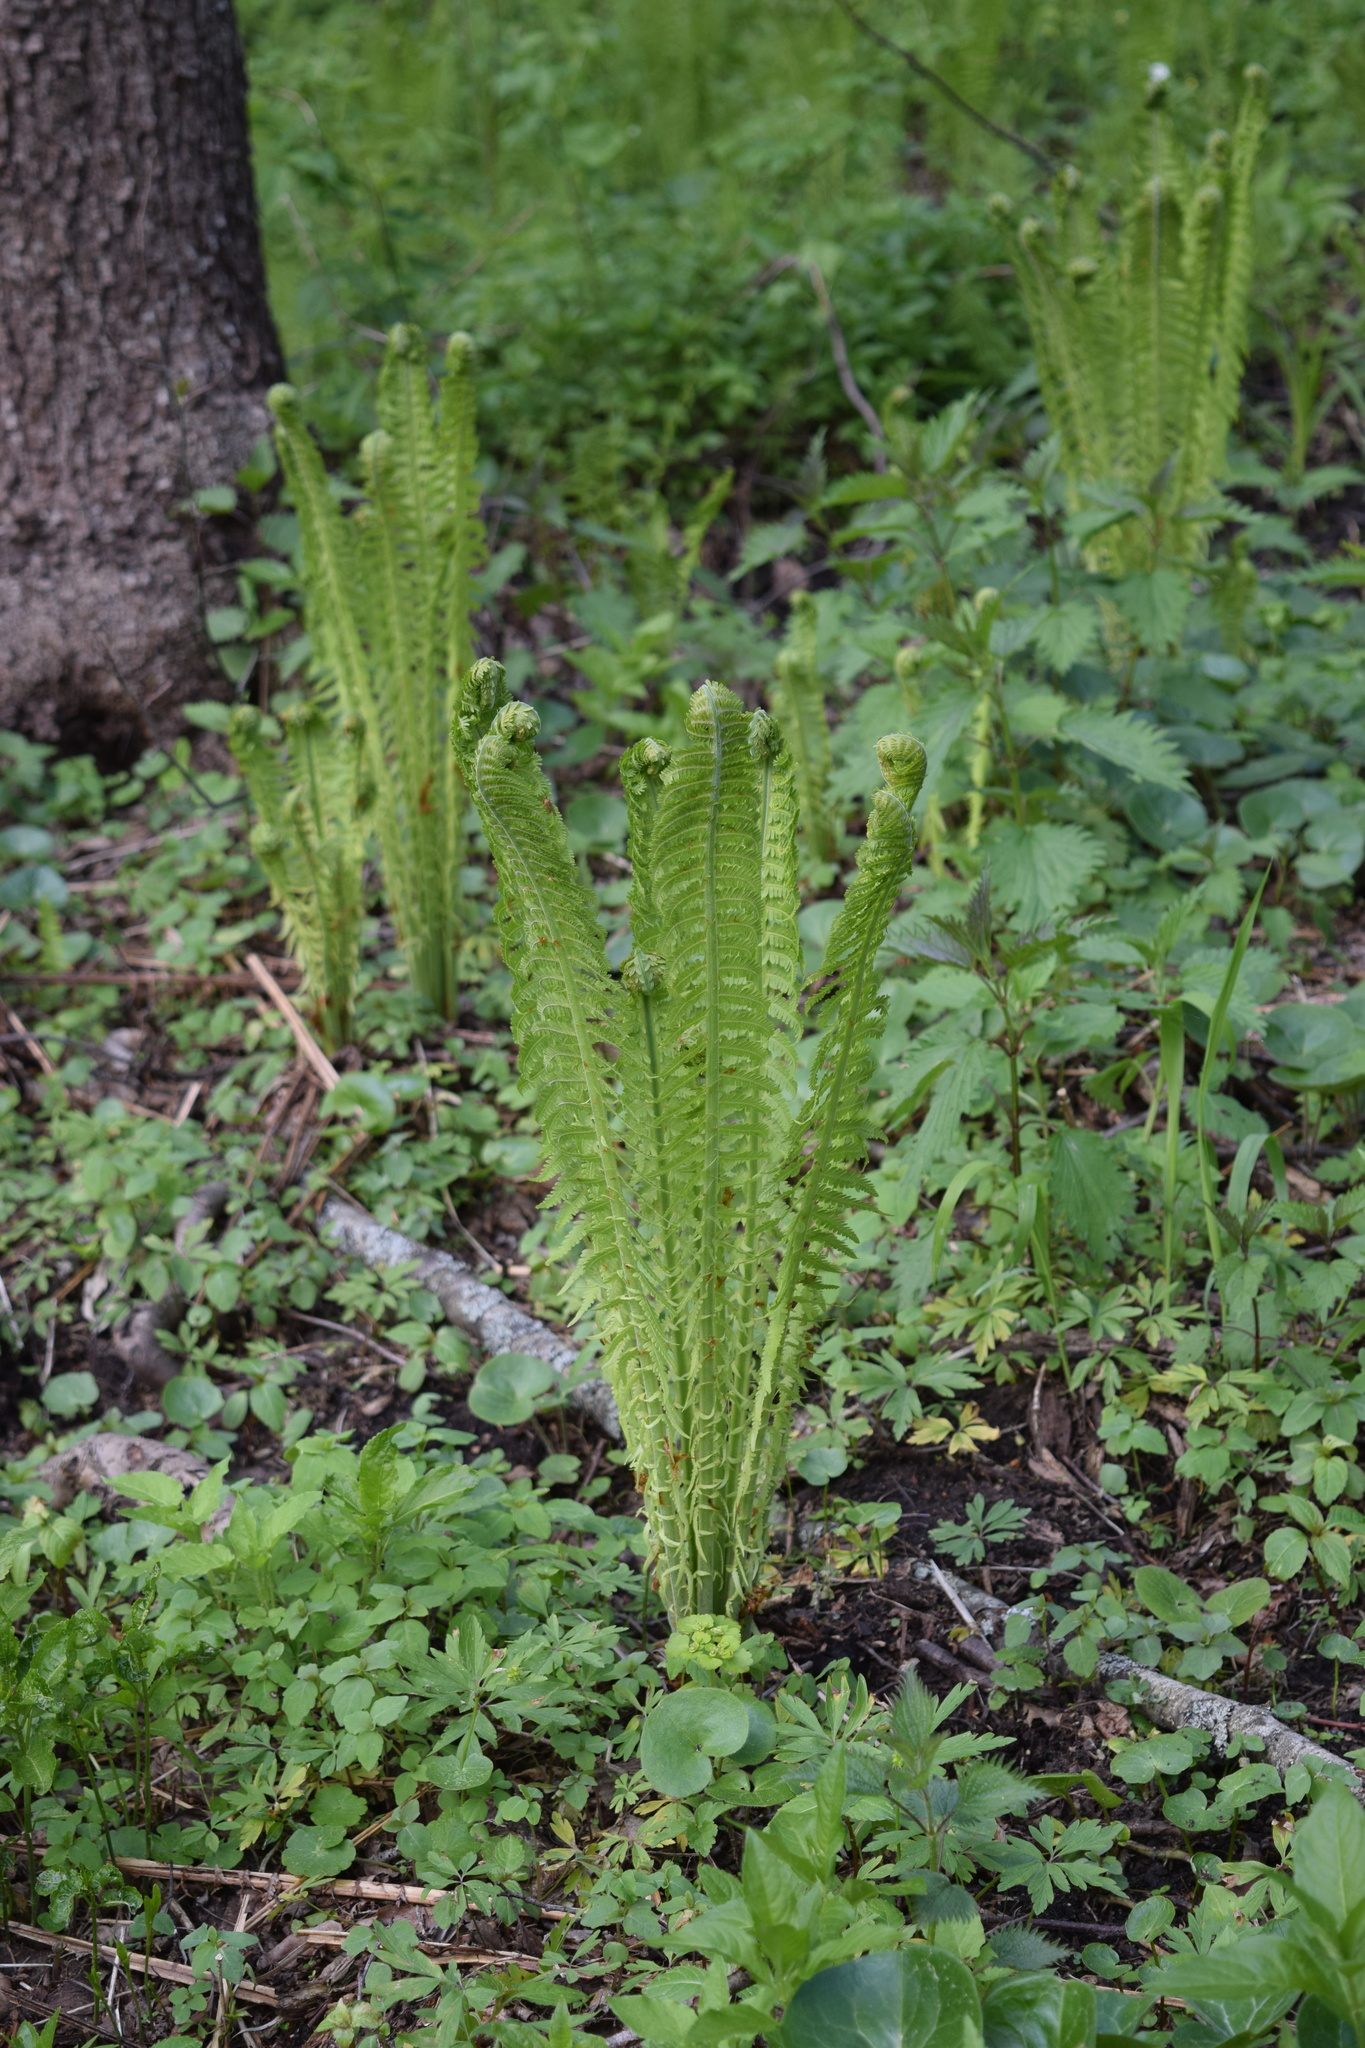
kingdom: Plantae
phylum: Tracheophyta
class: Polypodiopsida
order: Polypodiales
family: Onocleaceae
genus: Matteuccia
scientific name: Matteuccia struthiopteris
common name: Ostrich fern
